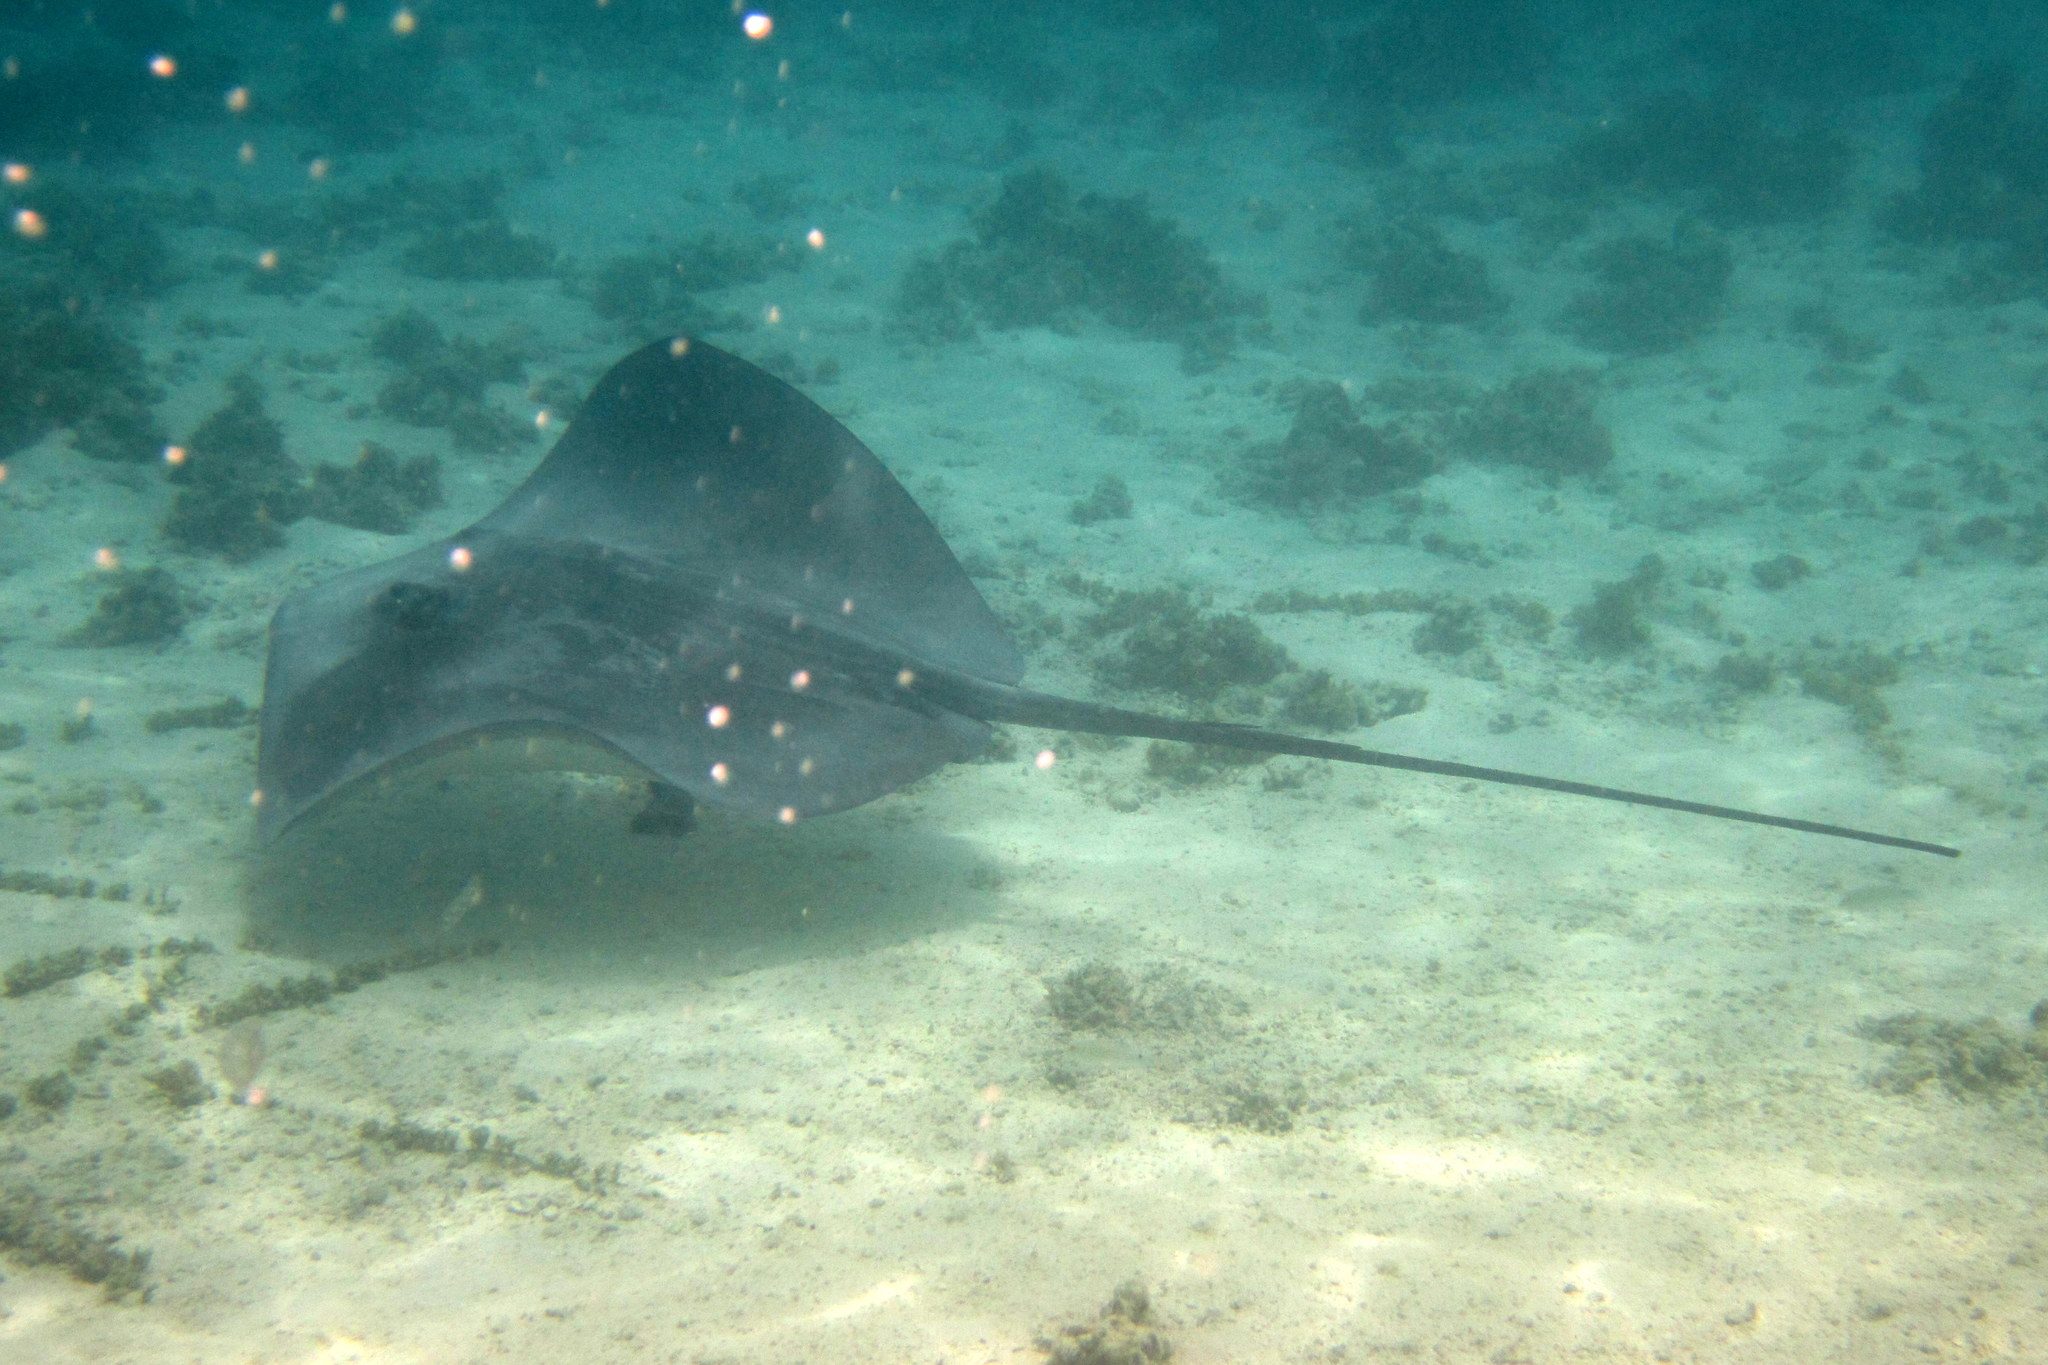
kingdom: Animalia
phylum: Chordata
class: Elasmobranchii
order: Myliobatiformes
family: Dasyatidae
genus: Pateobatis
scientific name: Pateobatis fai
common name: Pink whipray
